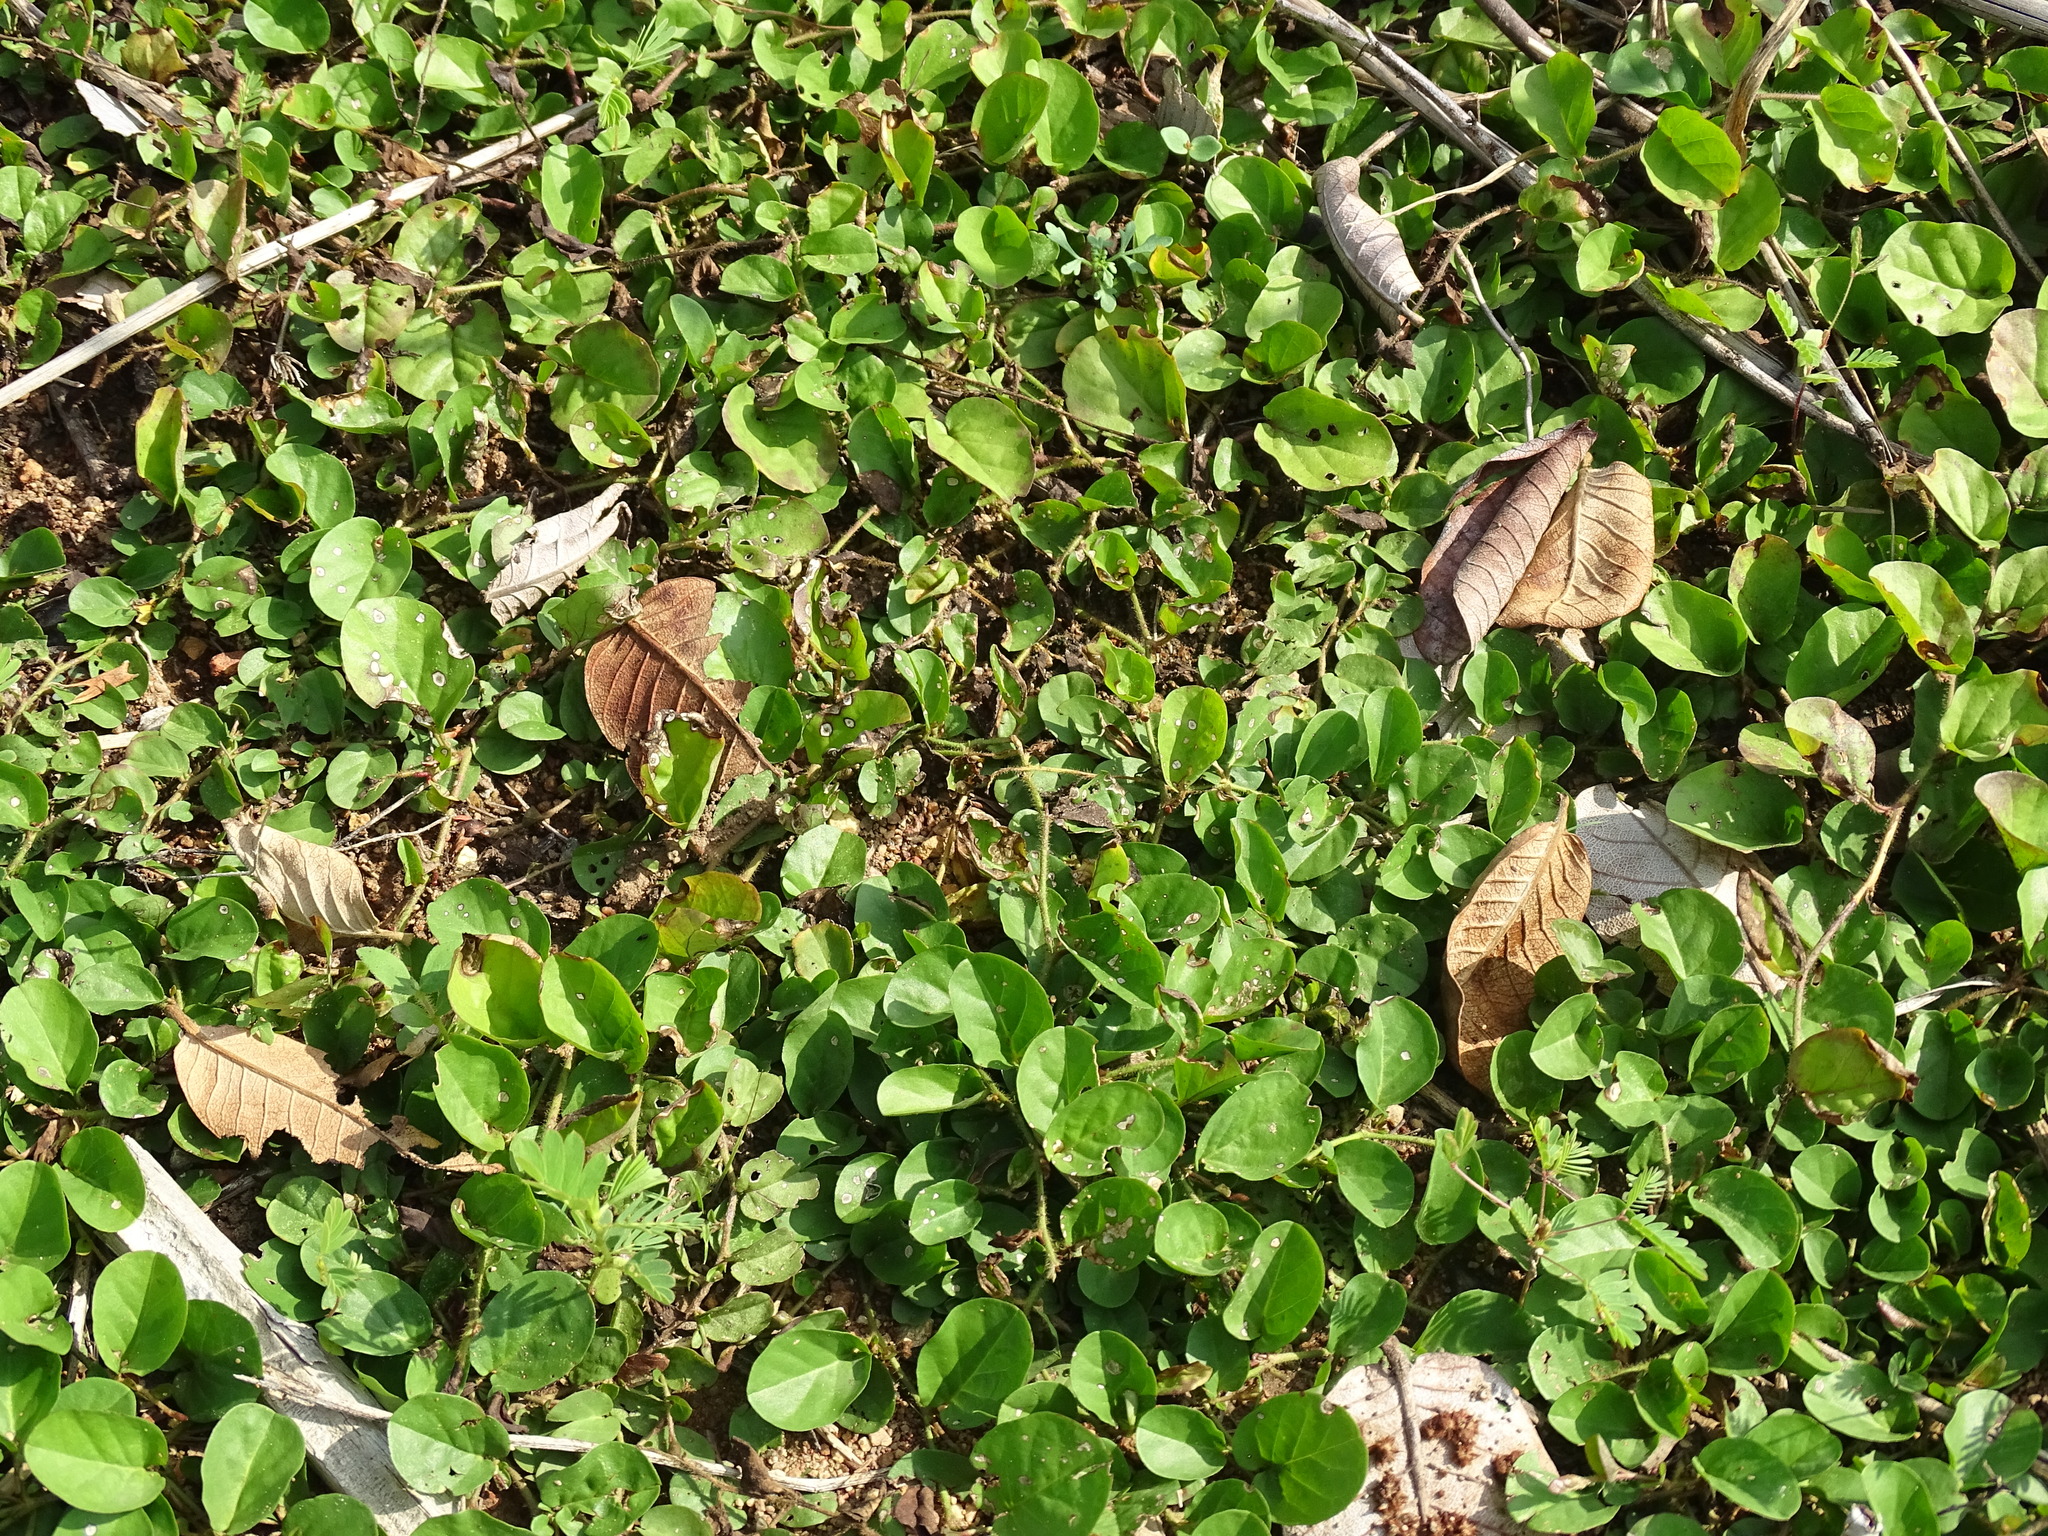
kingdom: Plantae
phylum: Tracheophyta
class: Magnoliopsida
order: Solanales
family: Convolvulaceae
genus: Evolvulus
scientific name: Evolvulus nummularius
